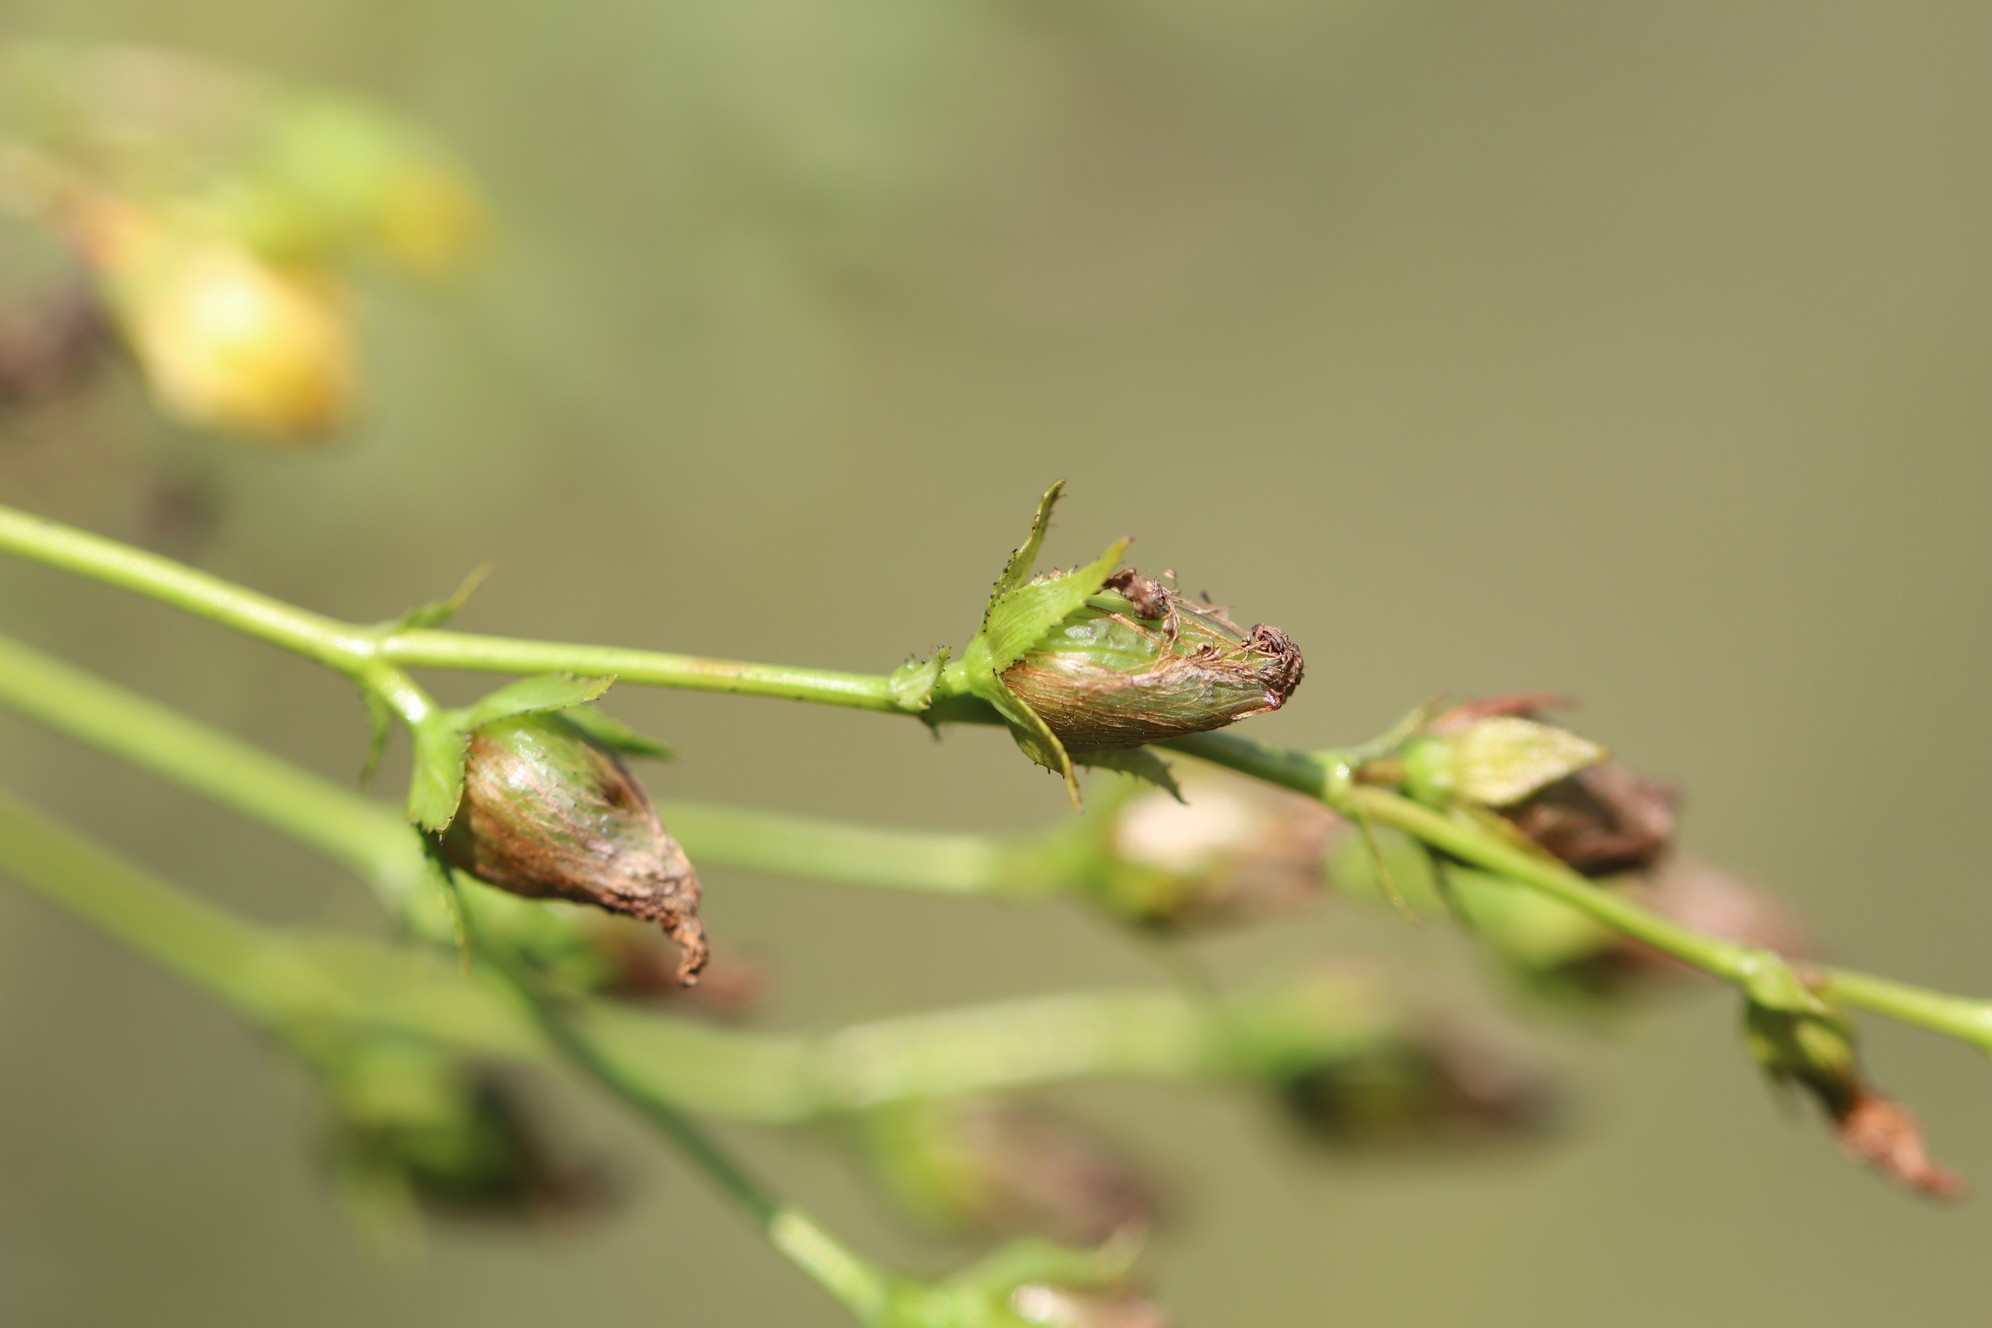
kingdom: Plantae
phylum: Tracheophyta
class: Magnoliopsida
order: Malpighiales
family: Hypericaceae
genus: Hypericum
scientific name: Hypericum elegans
